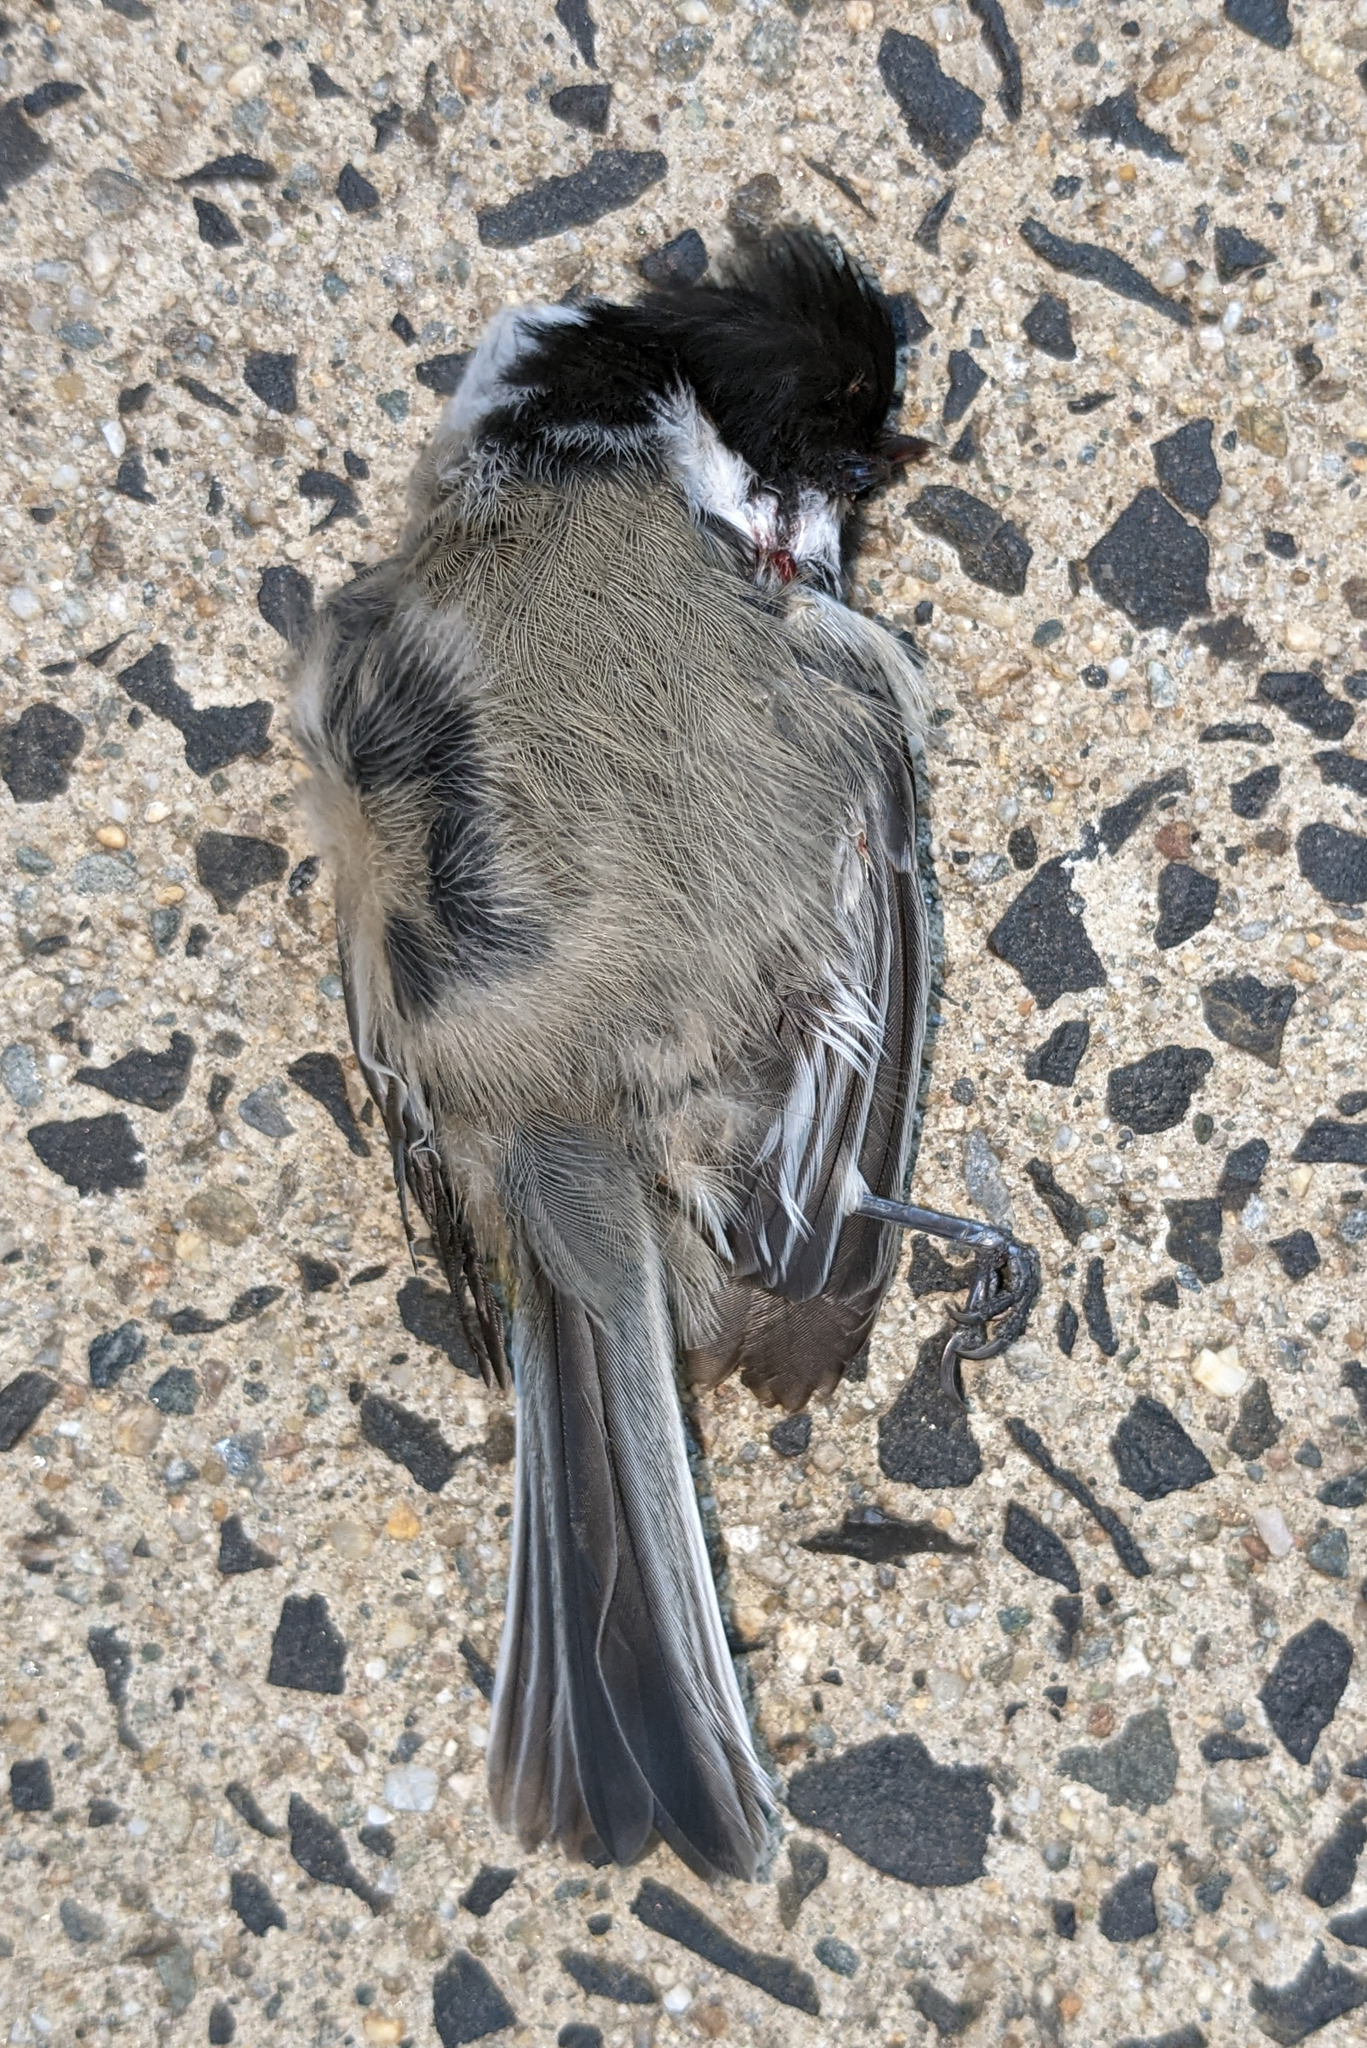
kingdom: Animalia
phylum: Chordata
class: Aves
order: Passeriformes
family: Paridae
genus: Poecile
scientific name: Poecile atricapillus
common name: Black-capped chickadee
